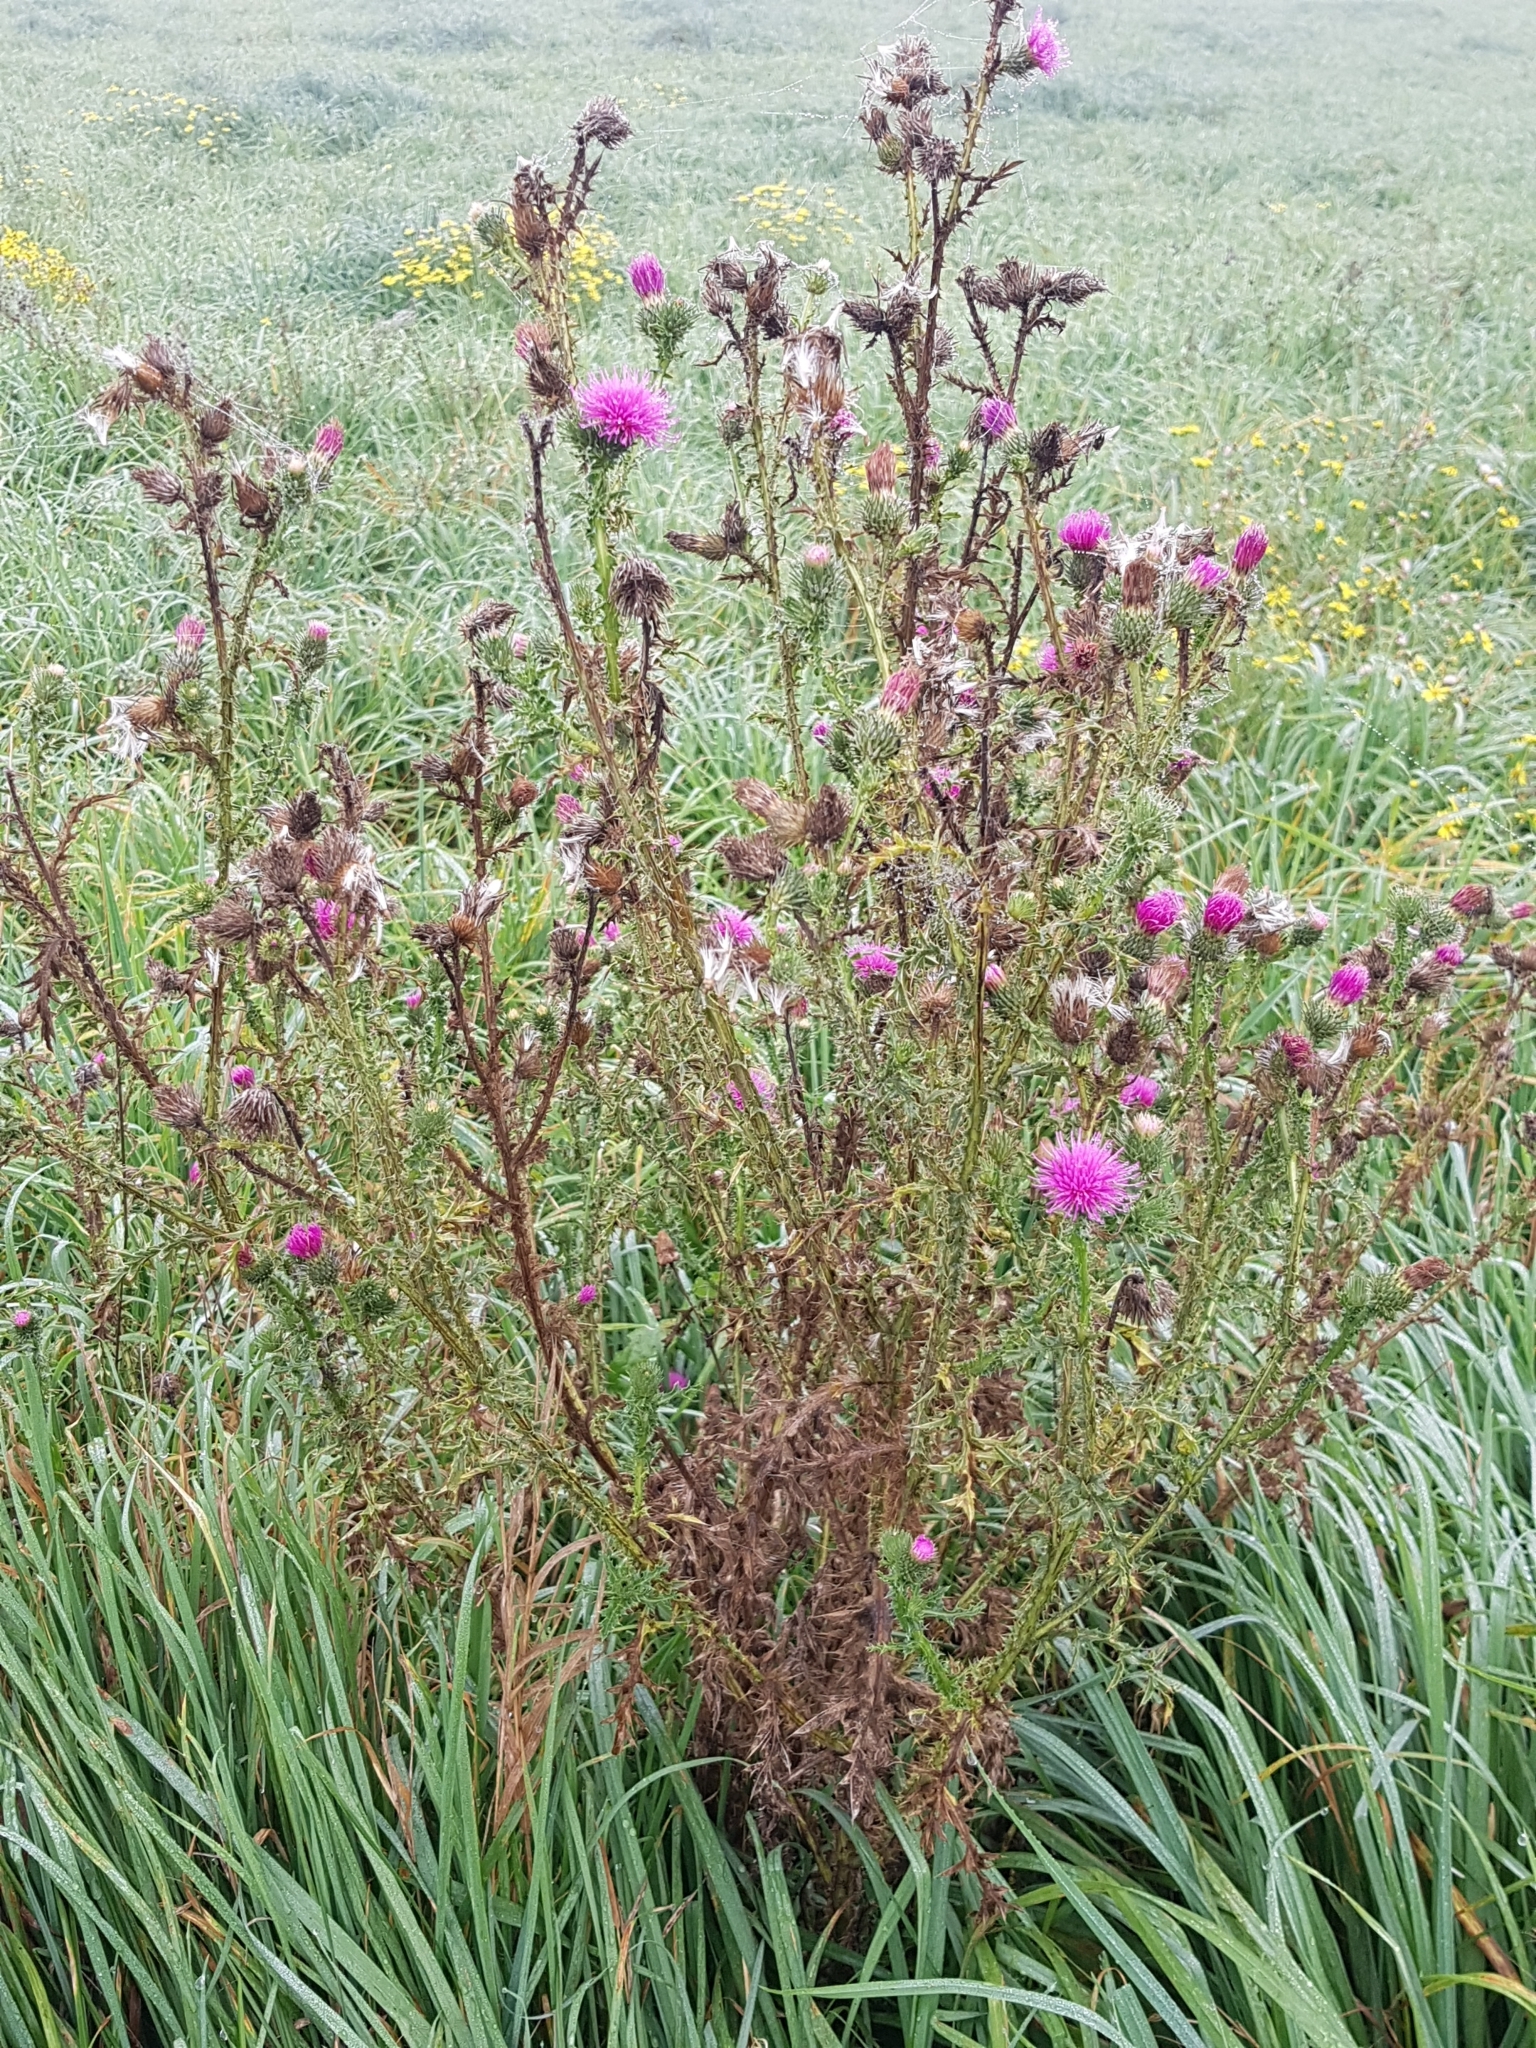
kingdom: Plantae
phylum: Tracheophyta
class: Magnoliopsida
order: Asterales
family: Asteraceae
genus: Carduus
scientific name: Carduus crispus
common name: Welted thistle
